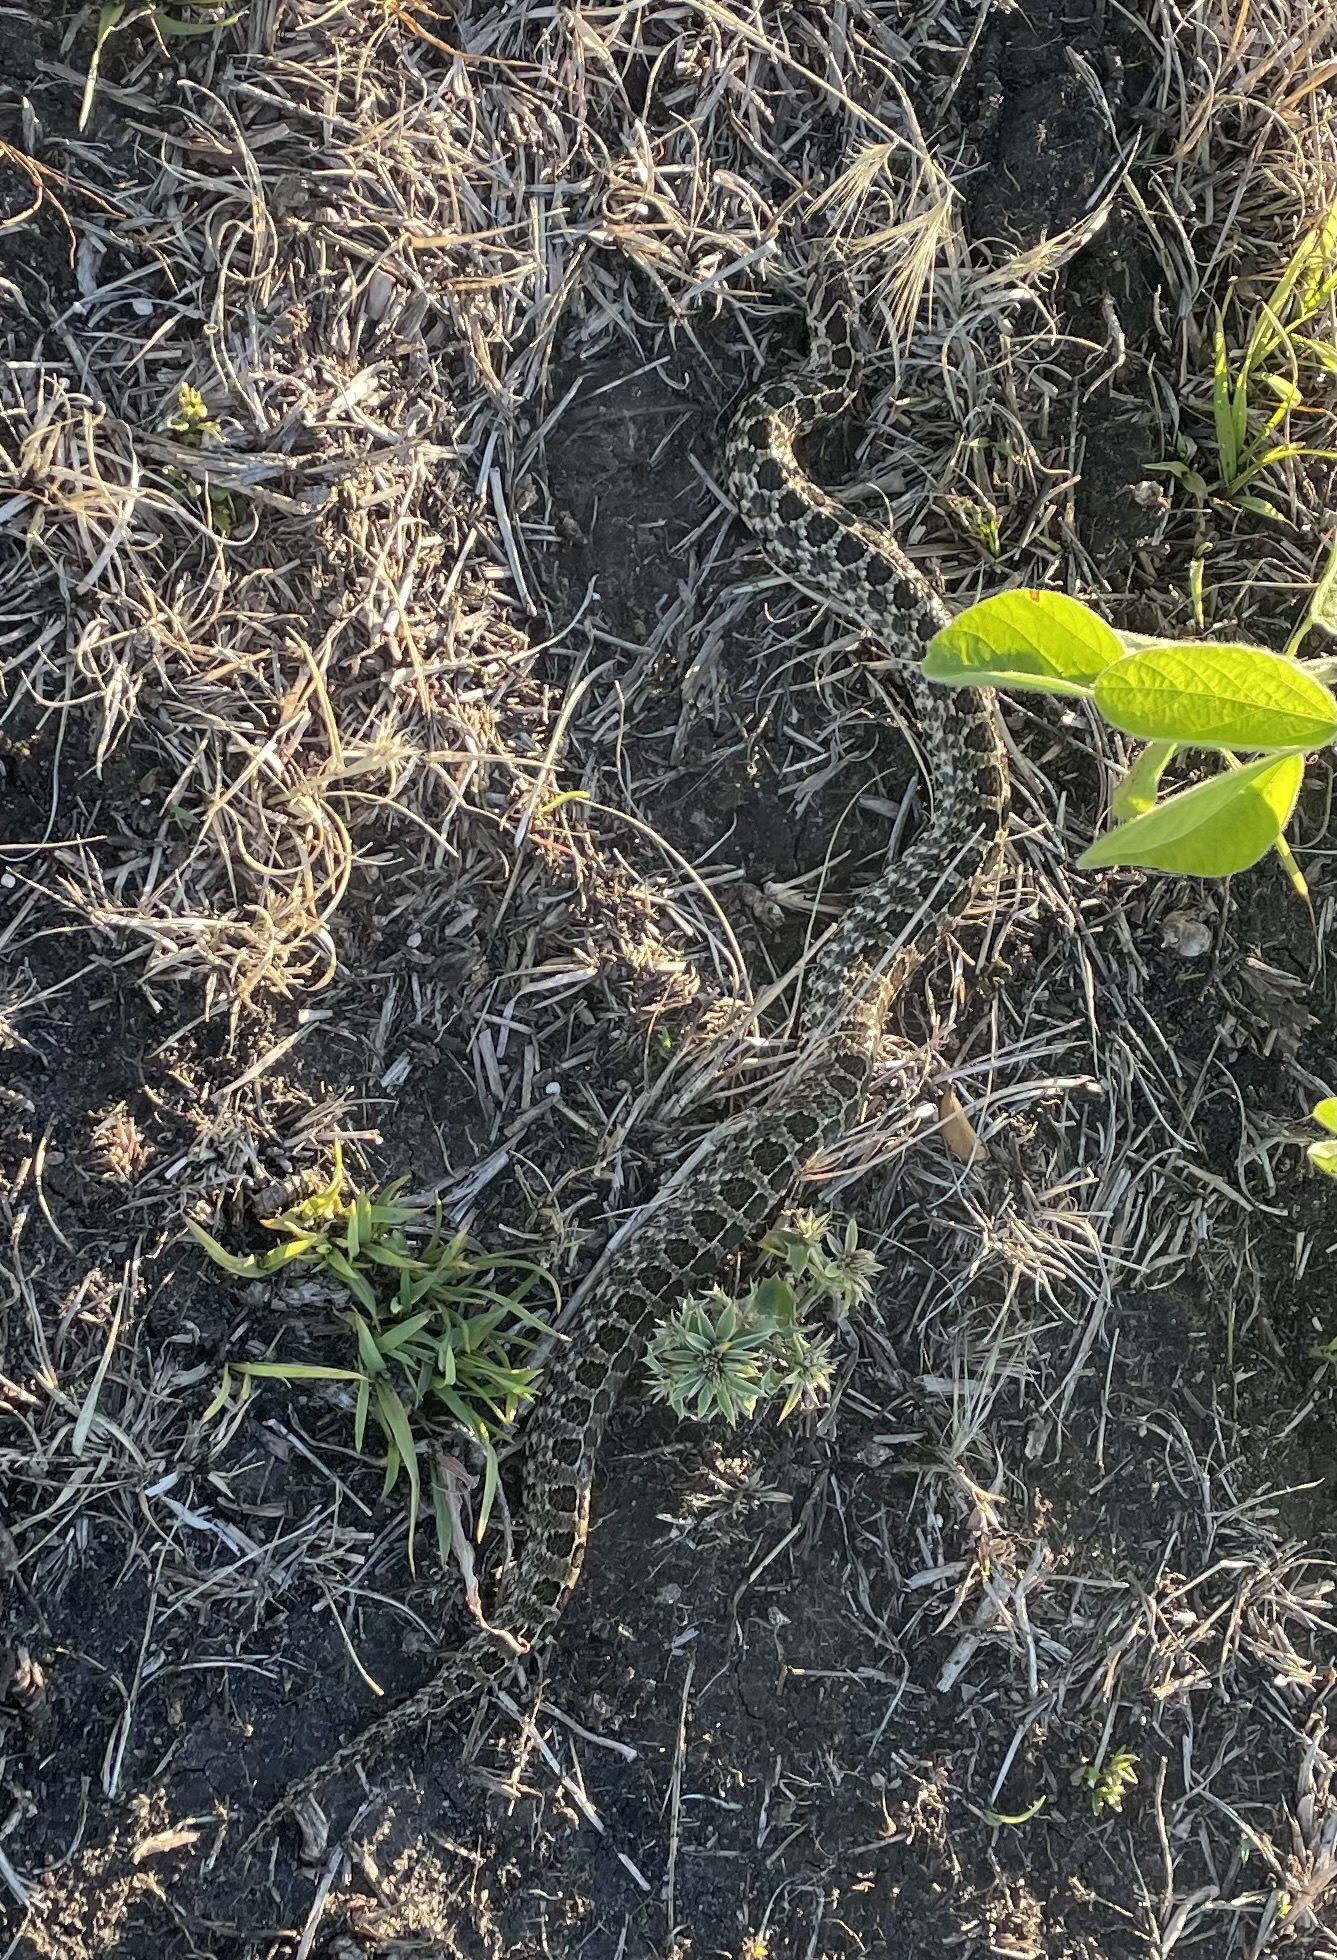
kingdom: Animalia
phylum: Chordata
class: Squamata
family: Colubridae
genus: Tachymenis
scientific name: Tachymenis
